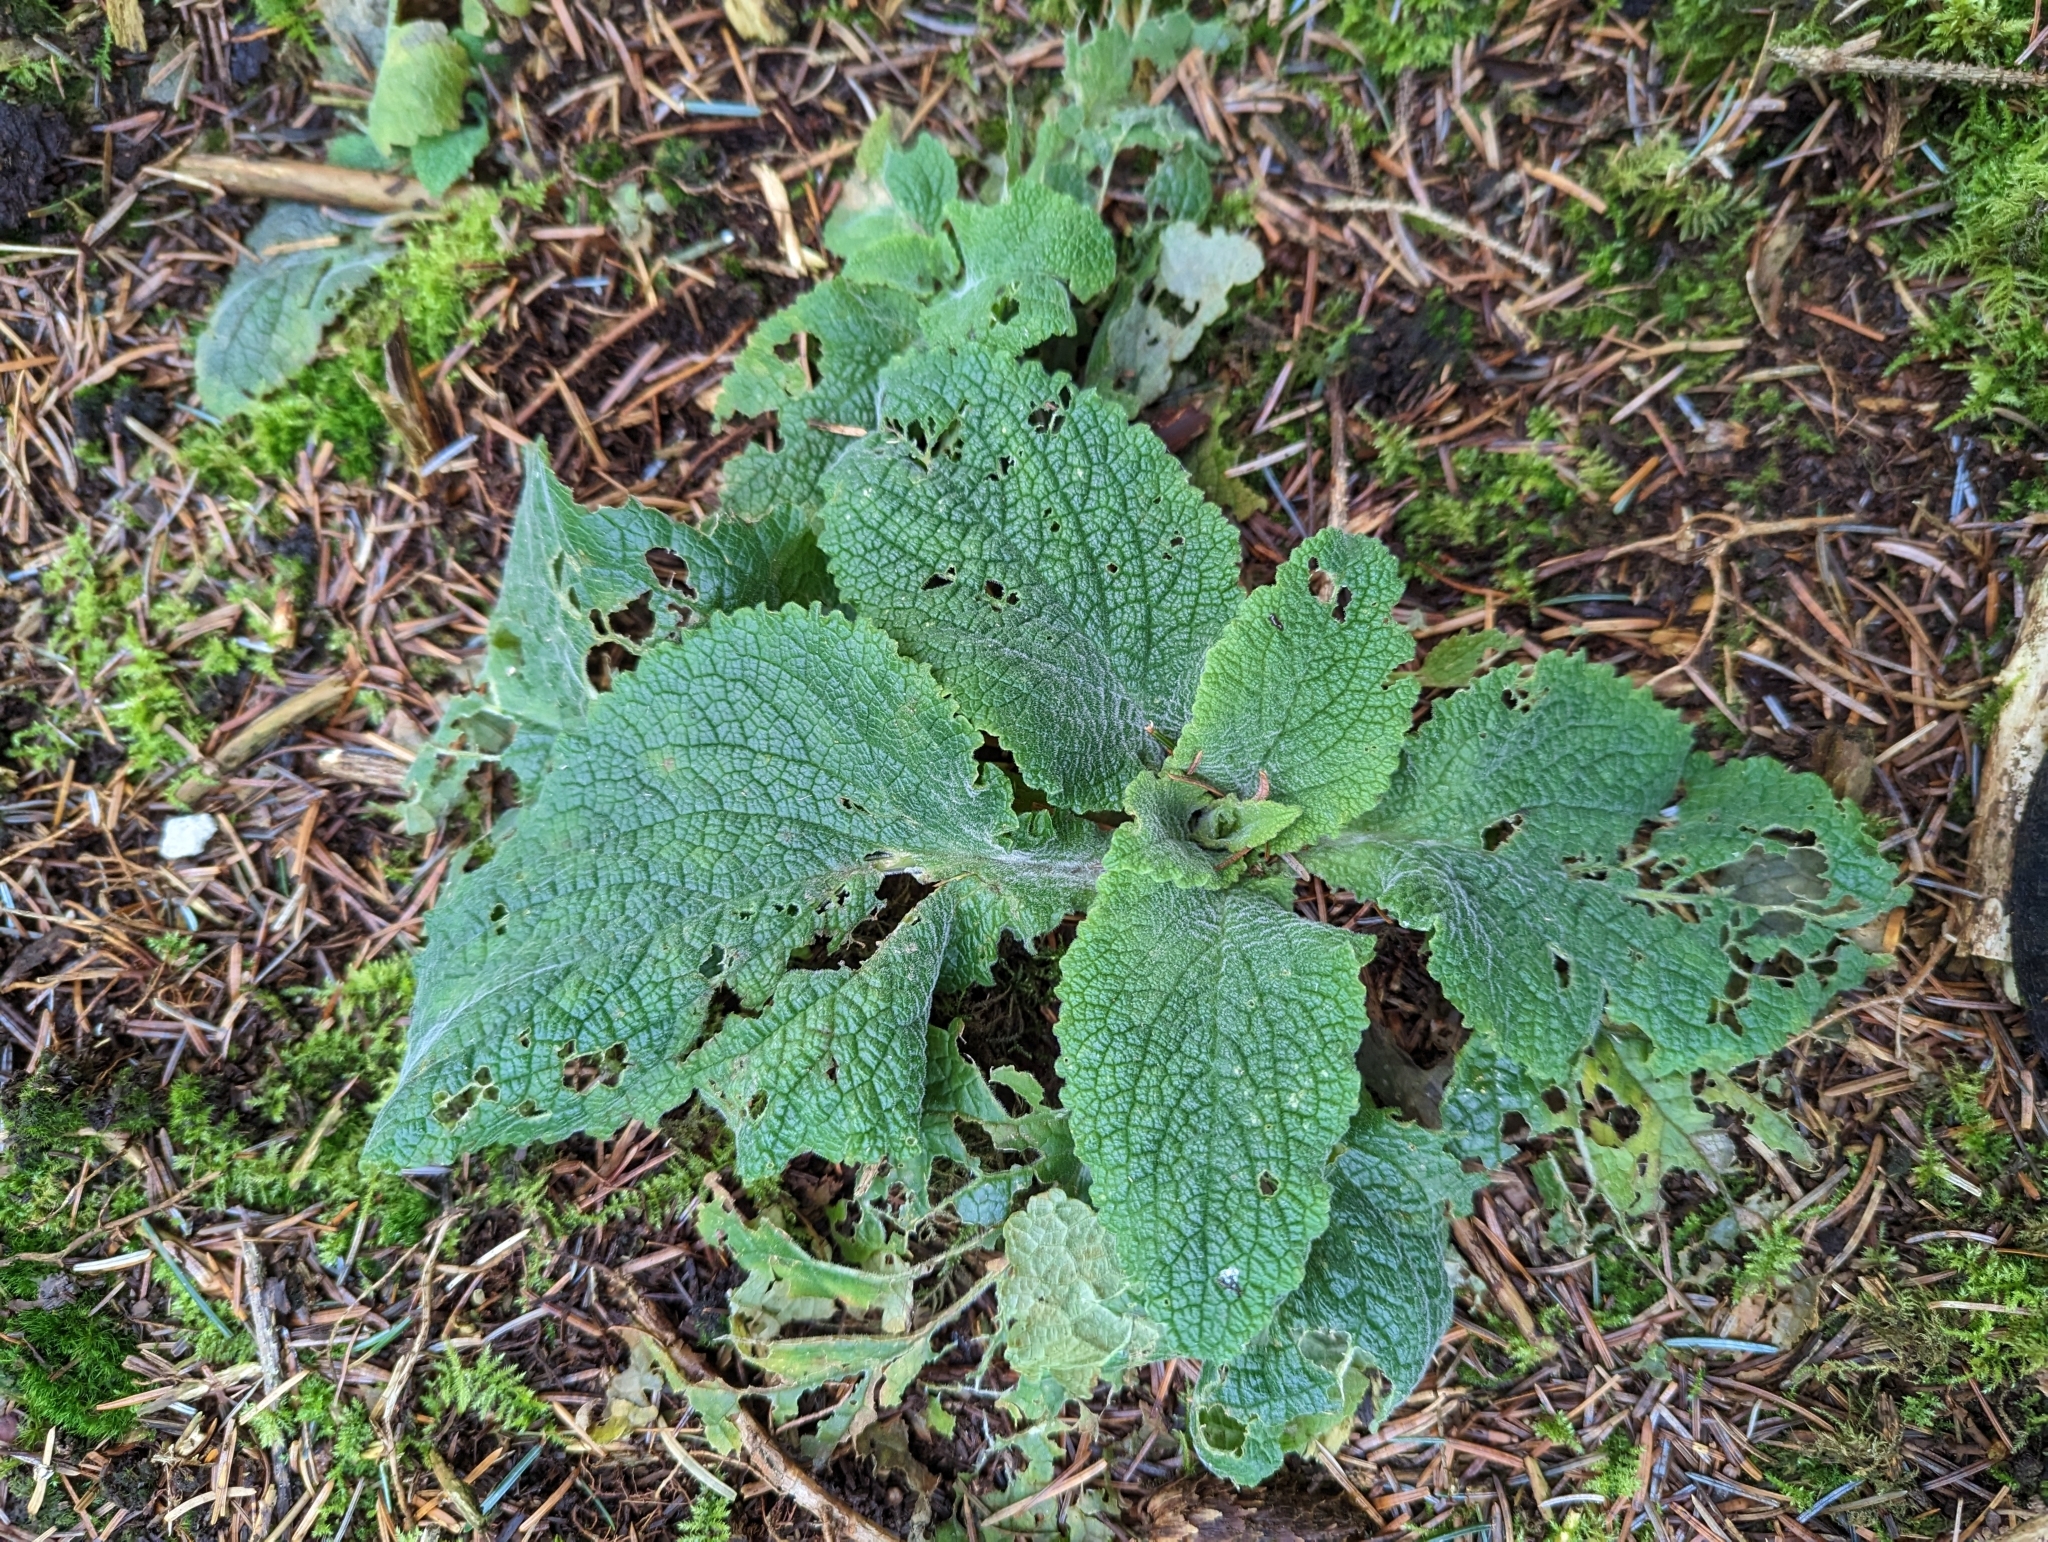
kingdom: Plantae
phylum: Tracheophyta
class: Magnoliopsida
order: Lamiales
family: Plantaginaceae
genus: Digitalis
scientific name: Digitalis purpurea
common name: Foxglove
